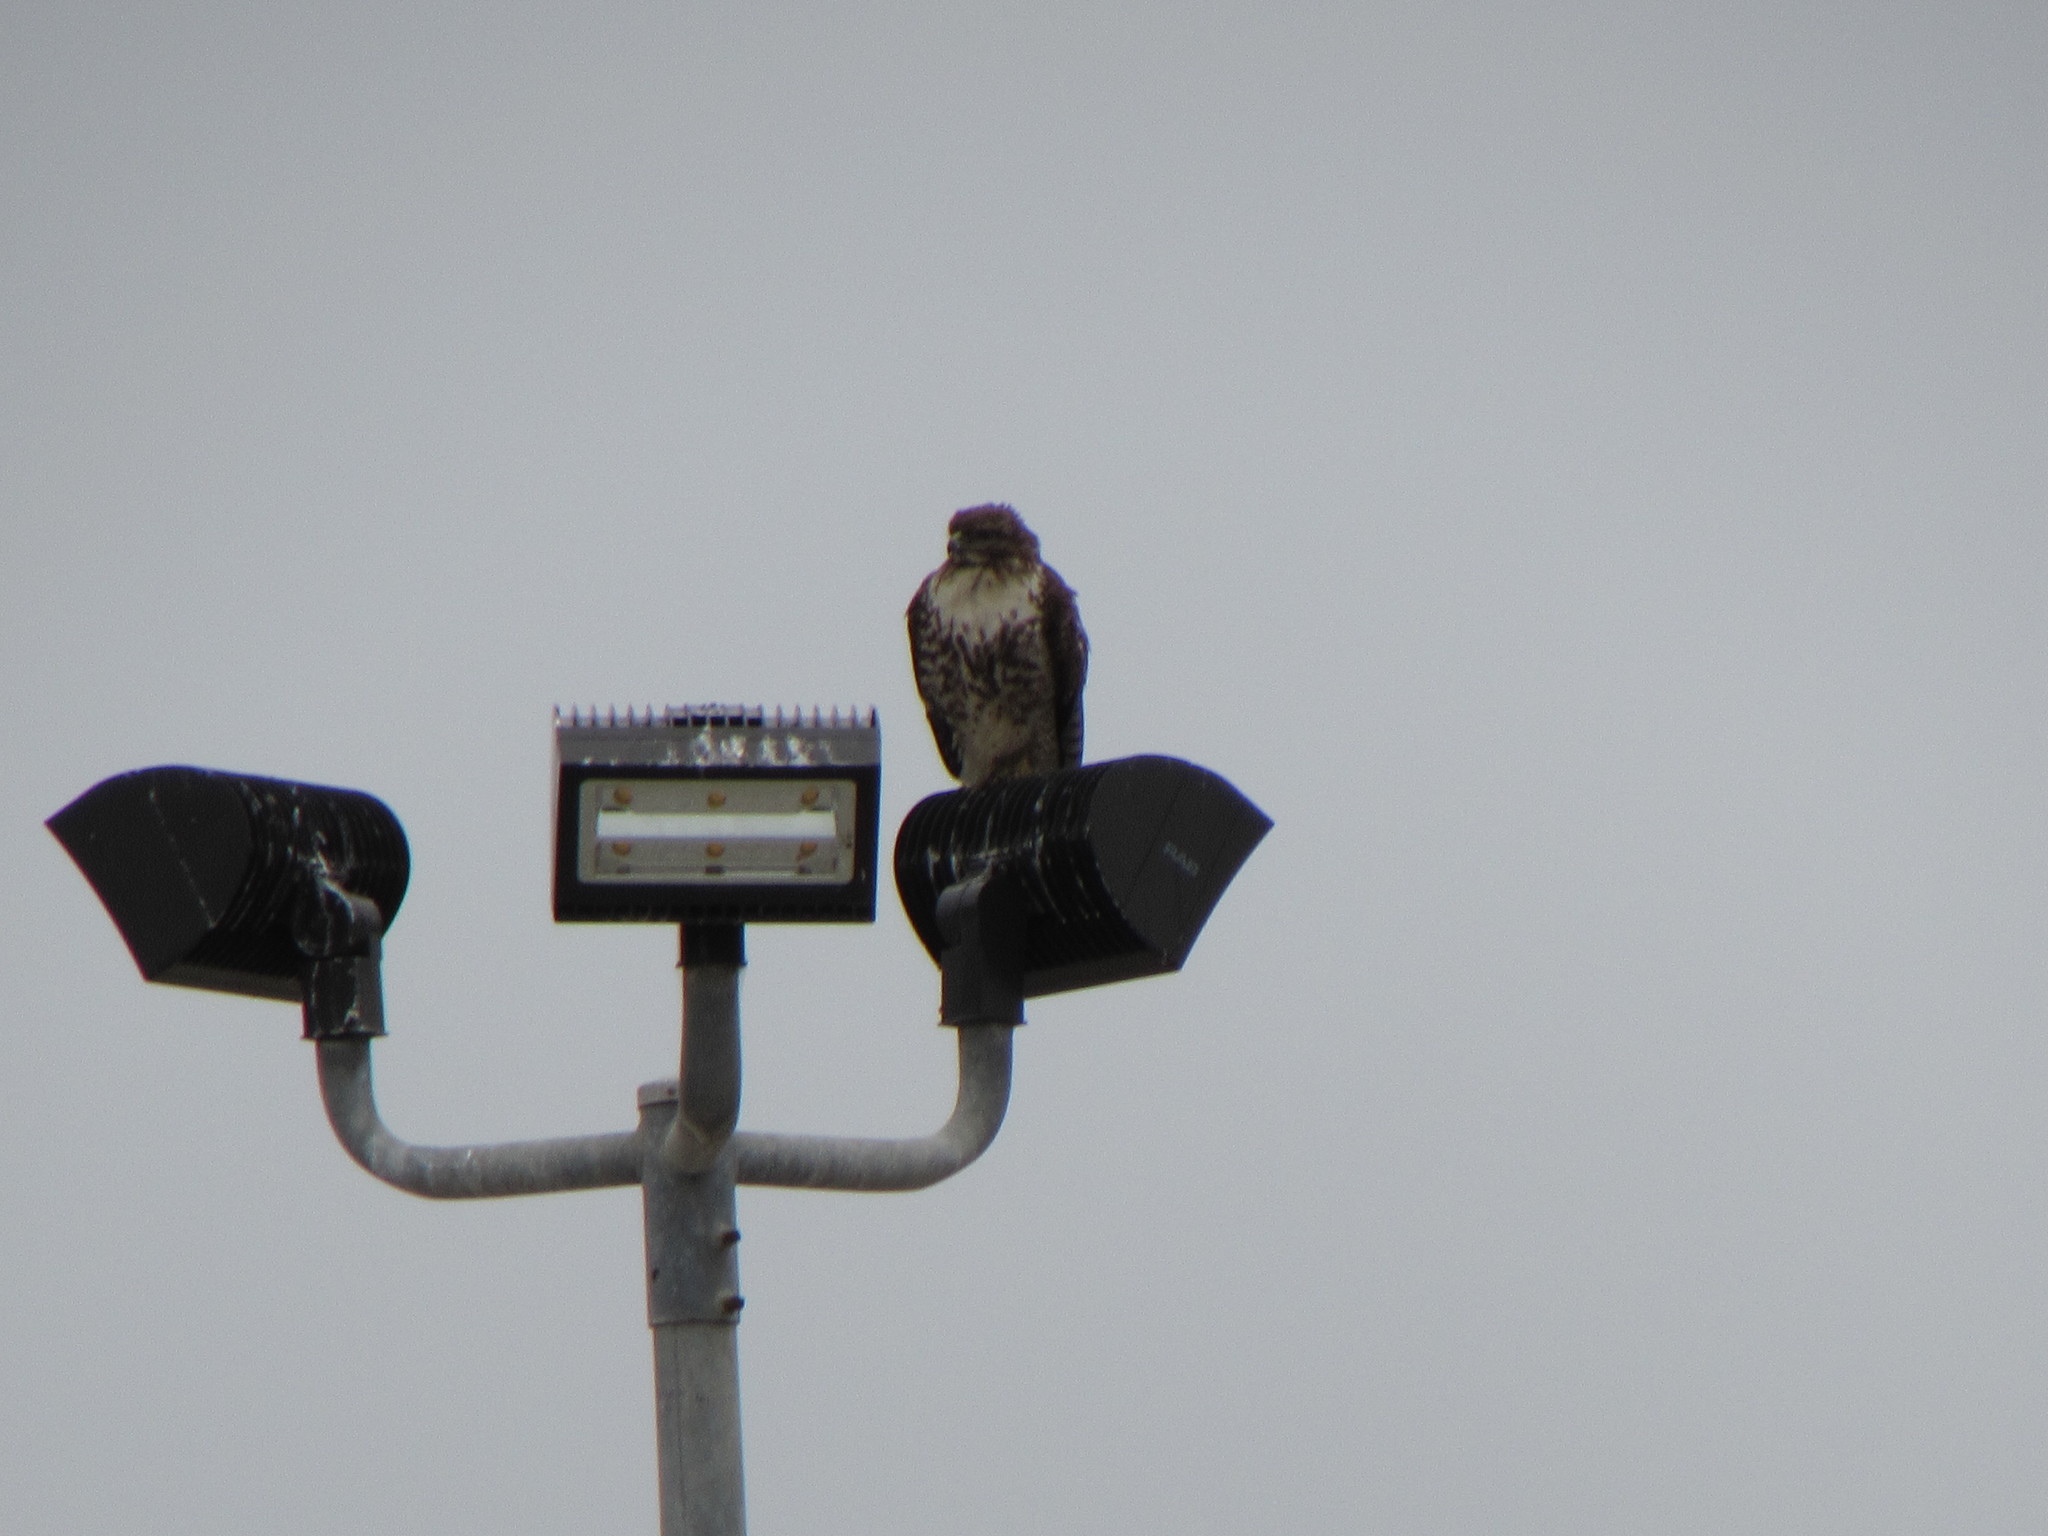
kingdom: Animalia
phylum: Chordata
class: Aves
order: Accipitriformes
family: Accipitridae
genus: Buteo
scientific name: Buteo jamaicensis
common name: Red-tailed hawk
